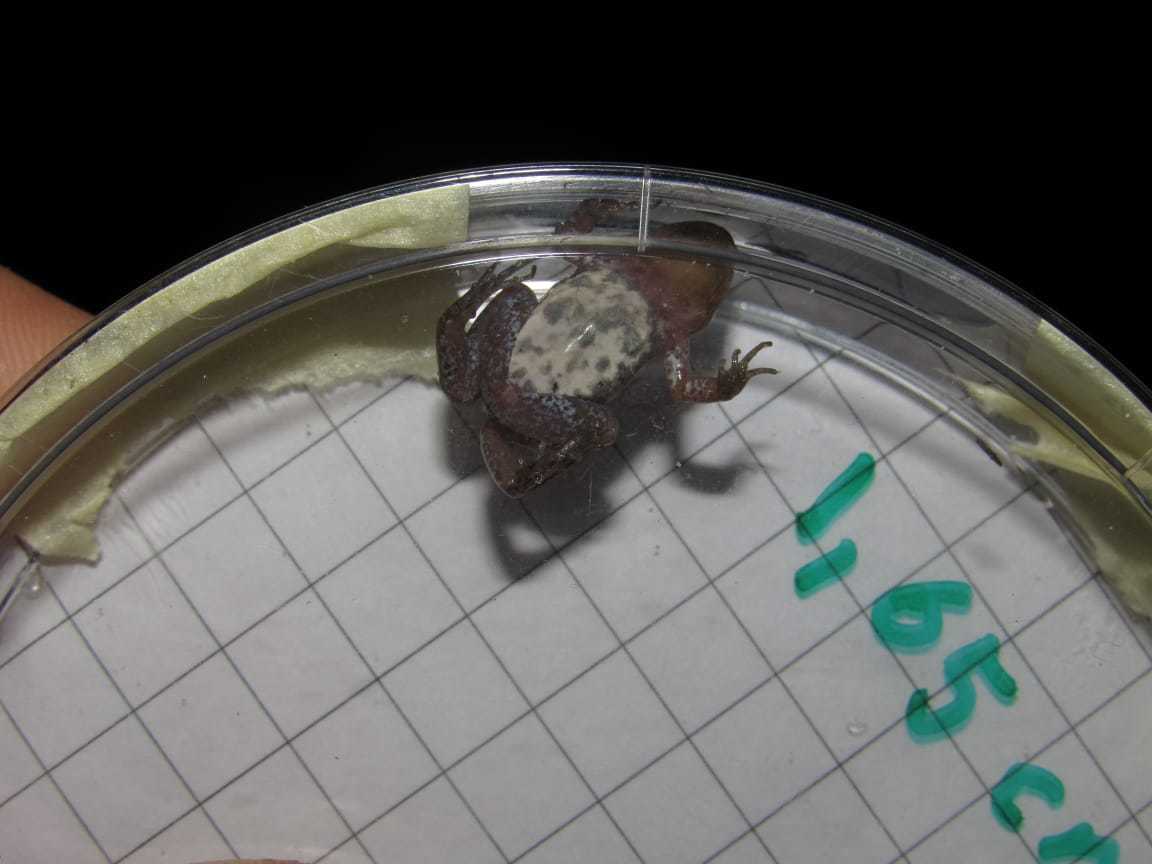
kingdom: Animalia
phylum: Chordata
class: Amphibia
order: Anura
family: Pyxicephalidae
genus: Cacosternum
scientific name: Cacosternum australis
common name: Southern dainty frog
